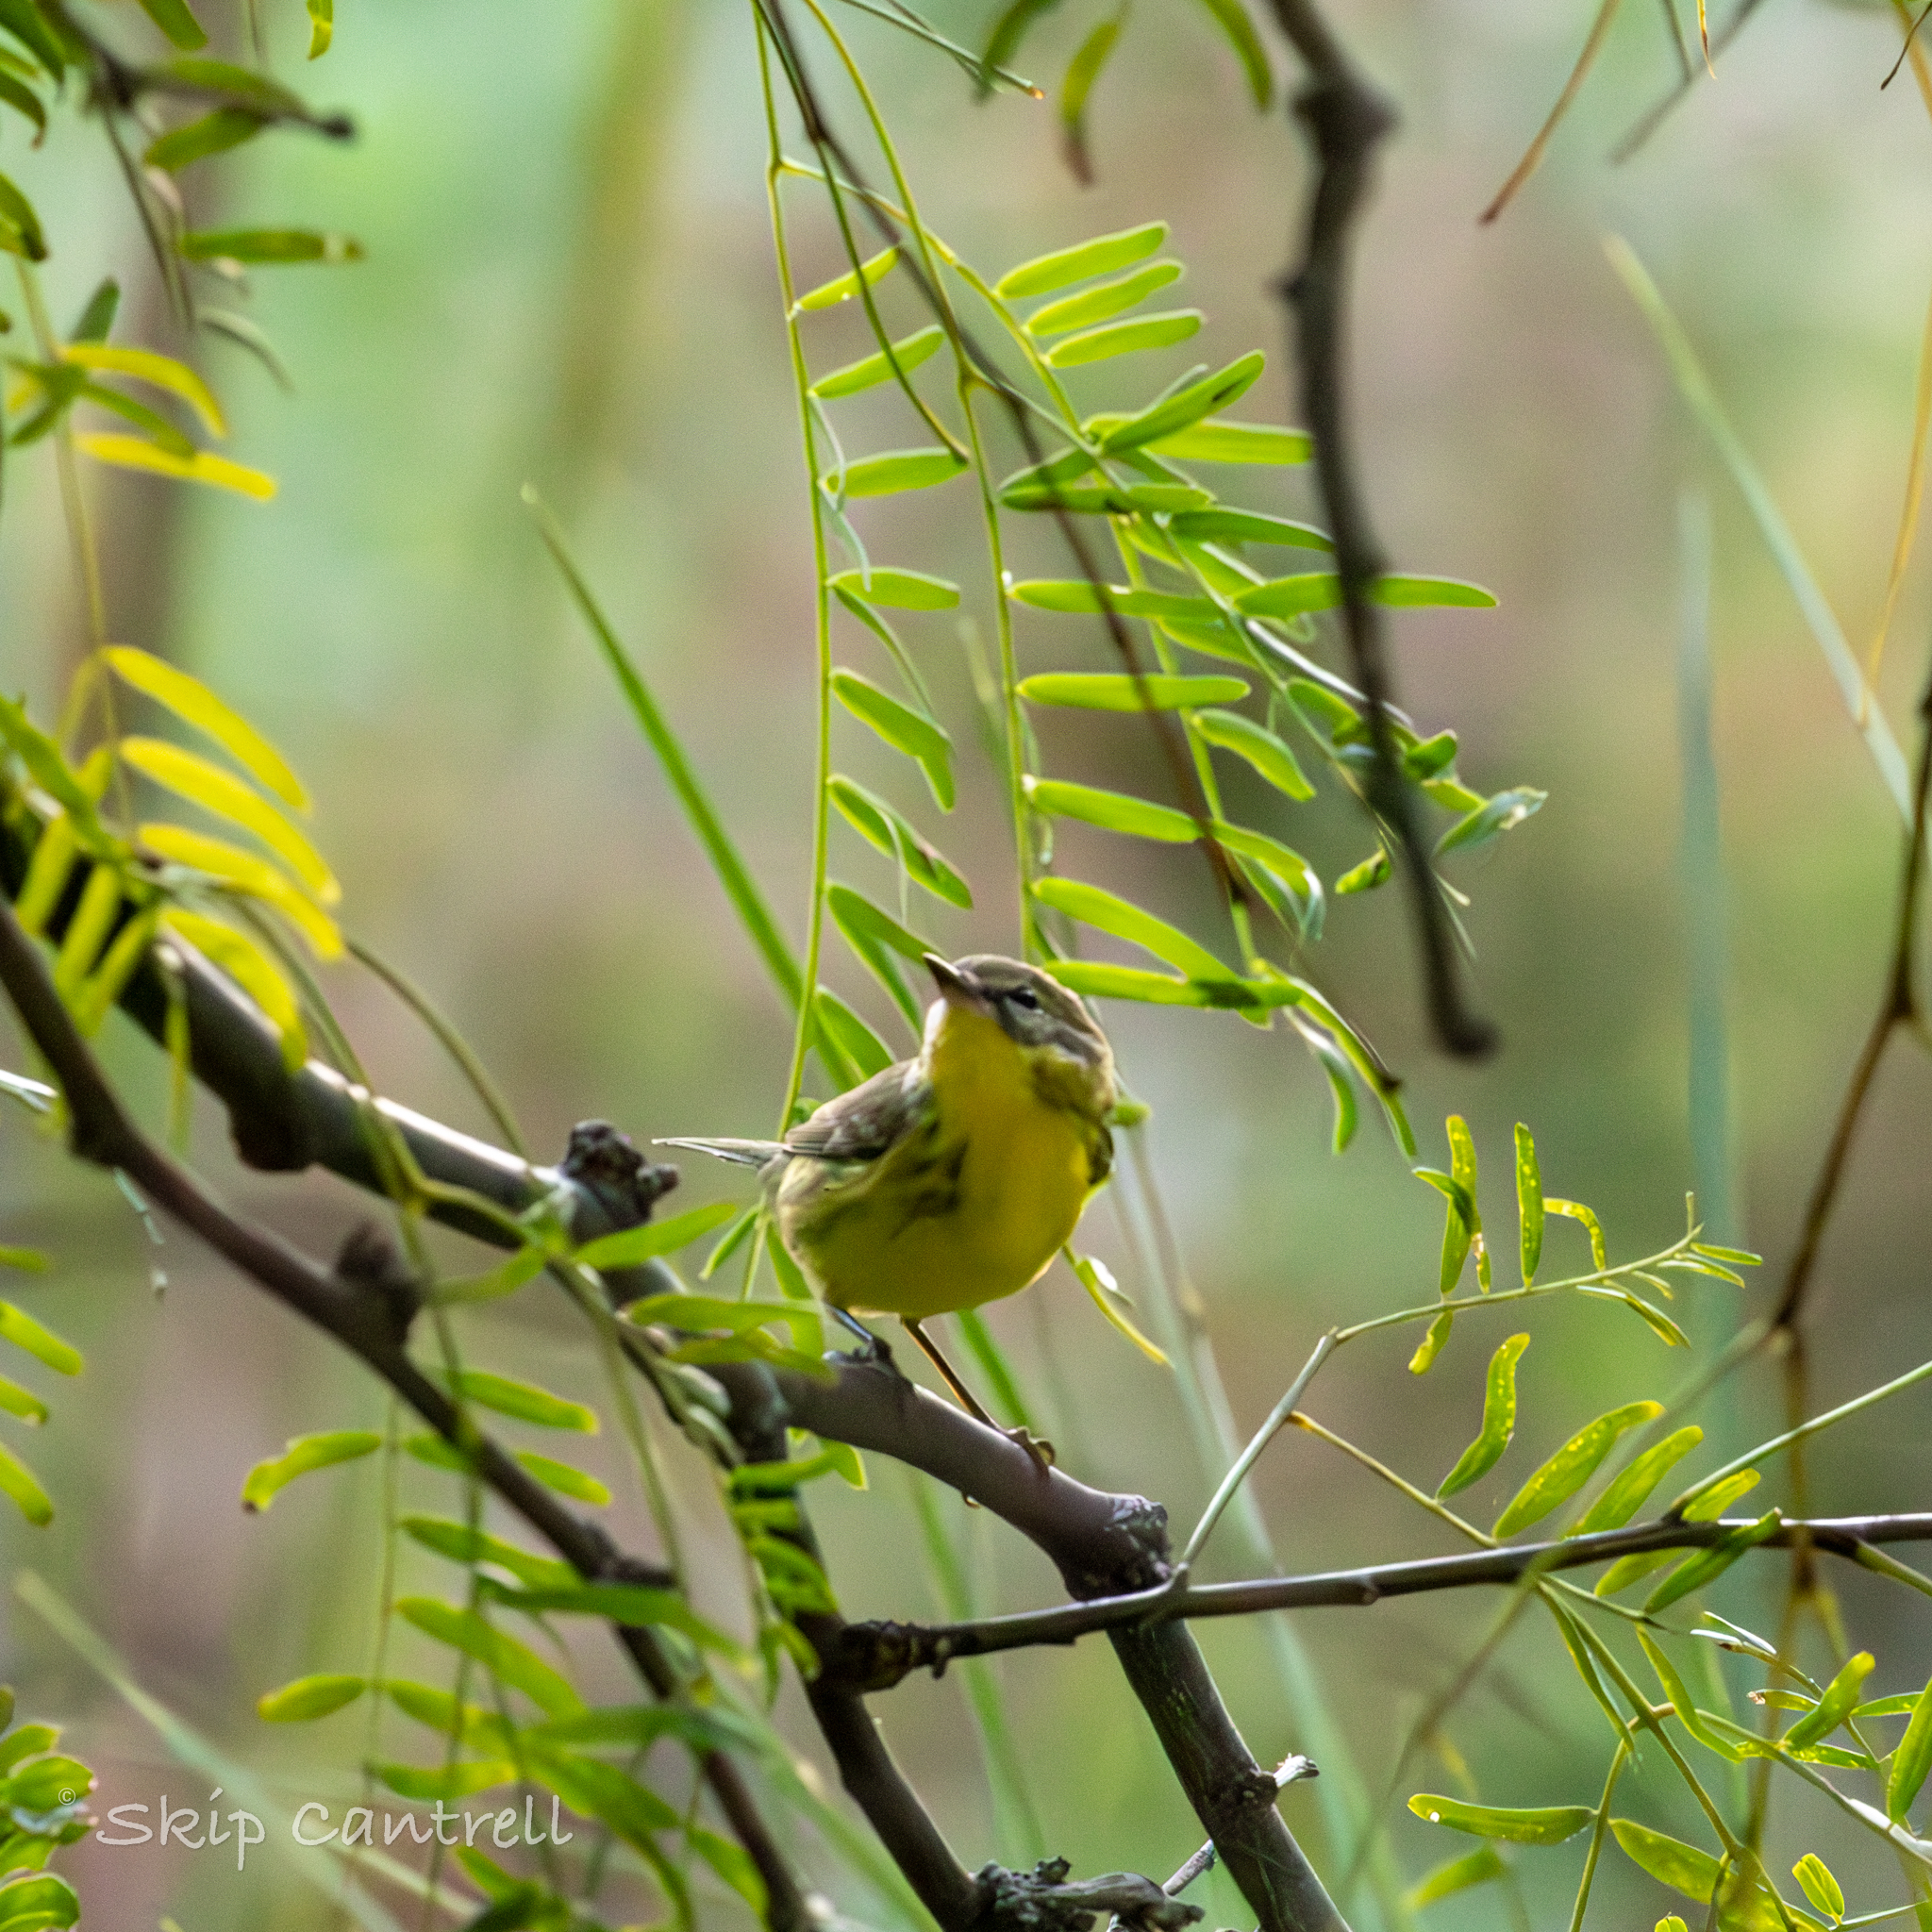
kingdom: Animalia
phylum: Chordata
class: Aves
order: Passeriformes
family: Parulidae
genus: Setophaga
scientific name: Setophaga discolor
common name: Prairie warbler
